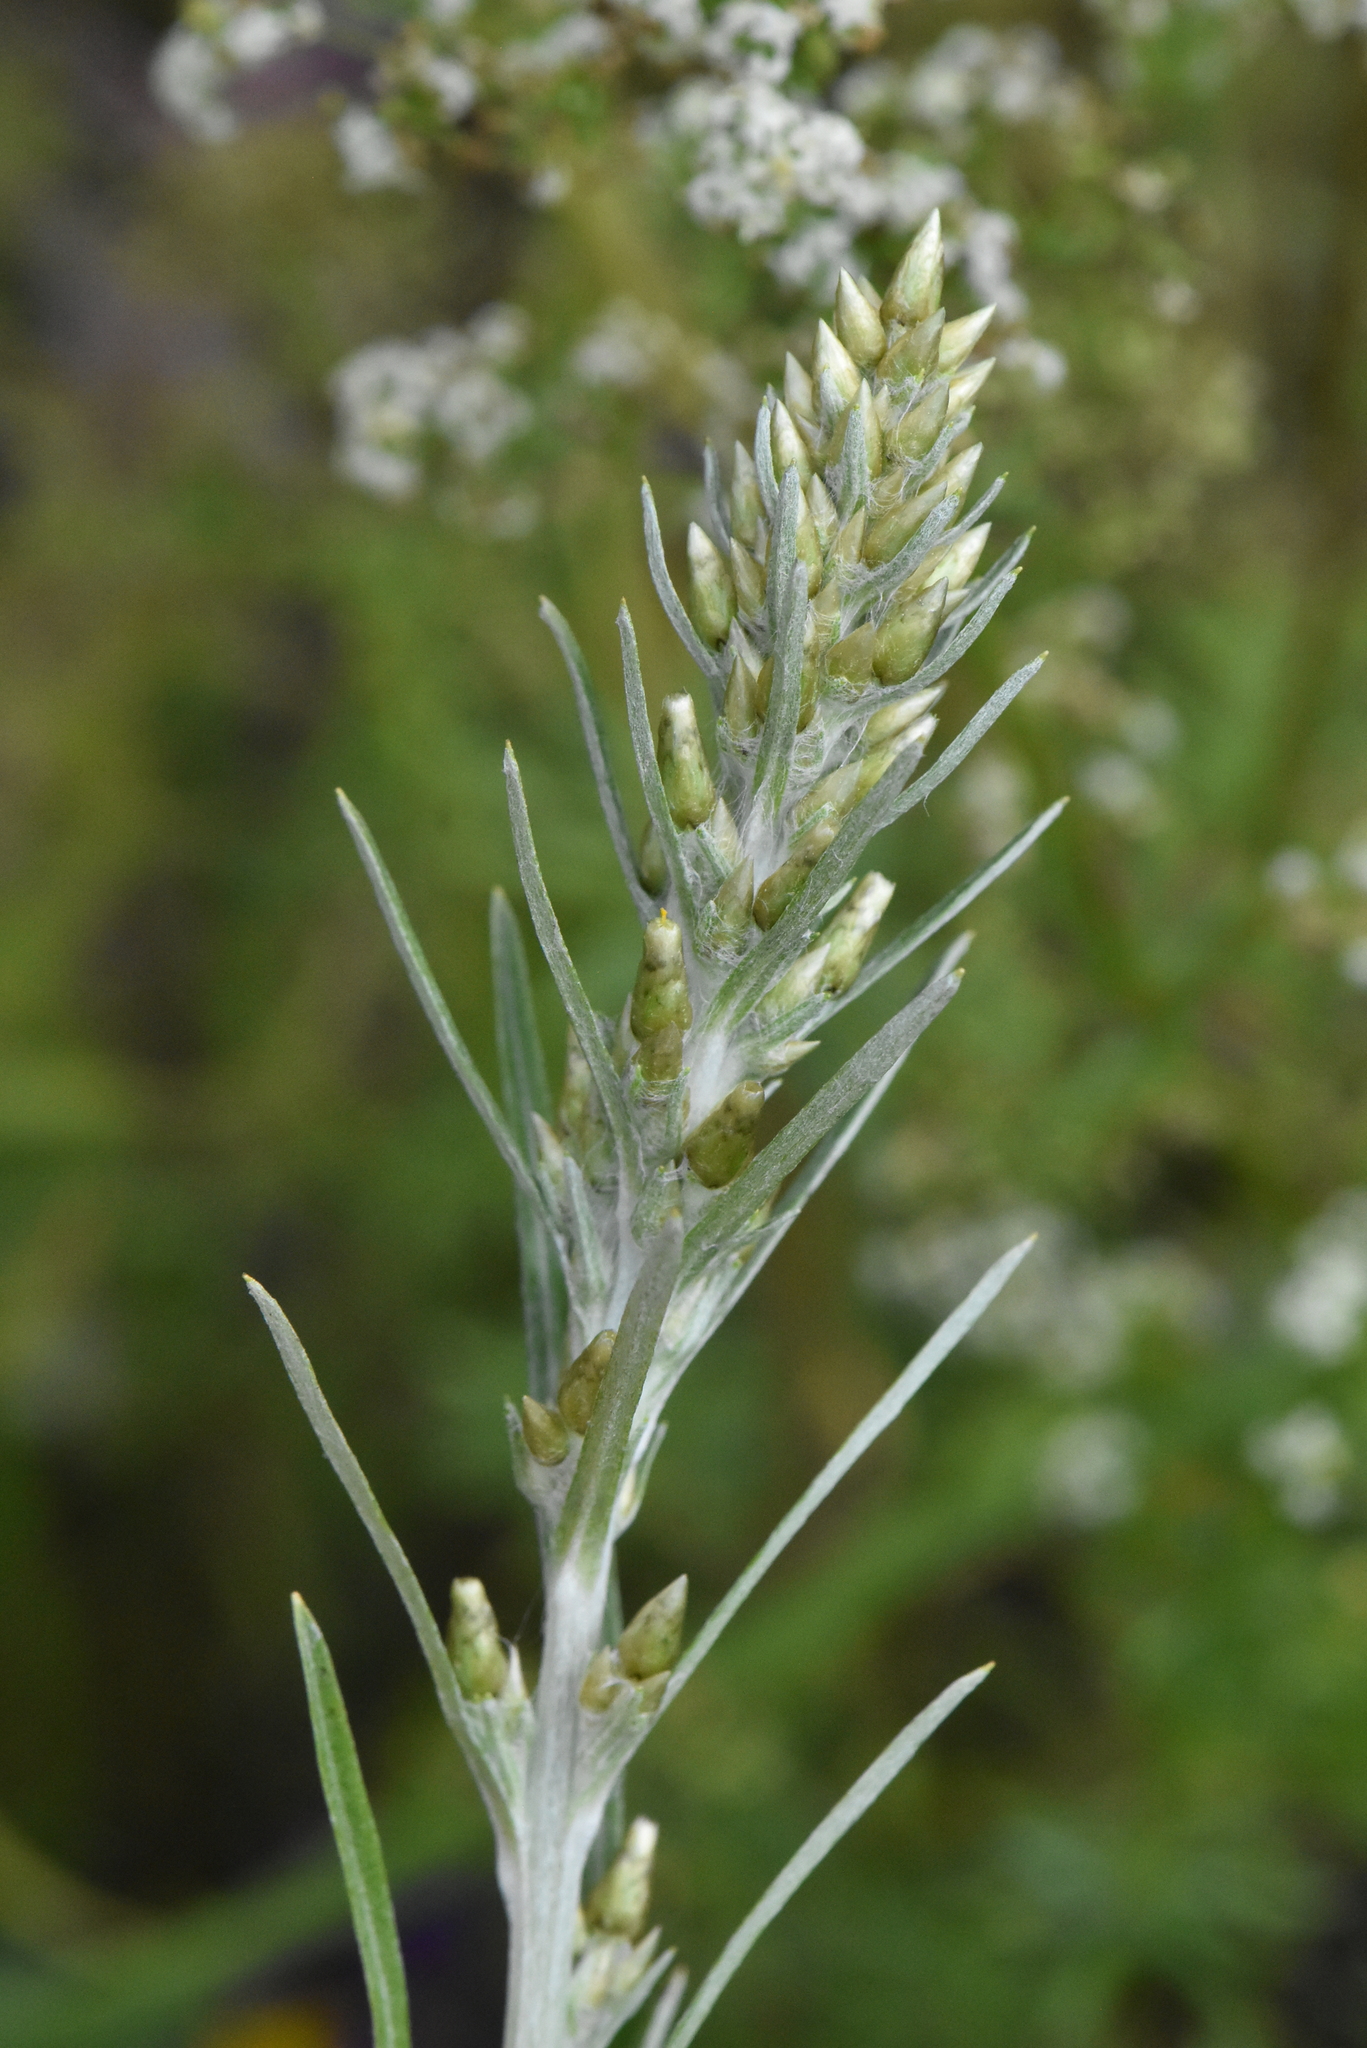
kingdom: Plantae
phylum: Tracheophyta
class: Magnoliopsida
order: Asterales
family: Asteraceae
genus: Omalotheca
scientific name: Omalotheca sylvatica
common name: Heath cudweed
